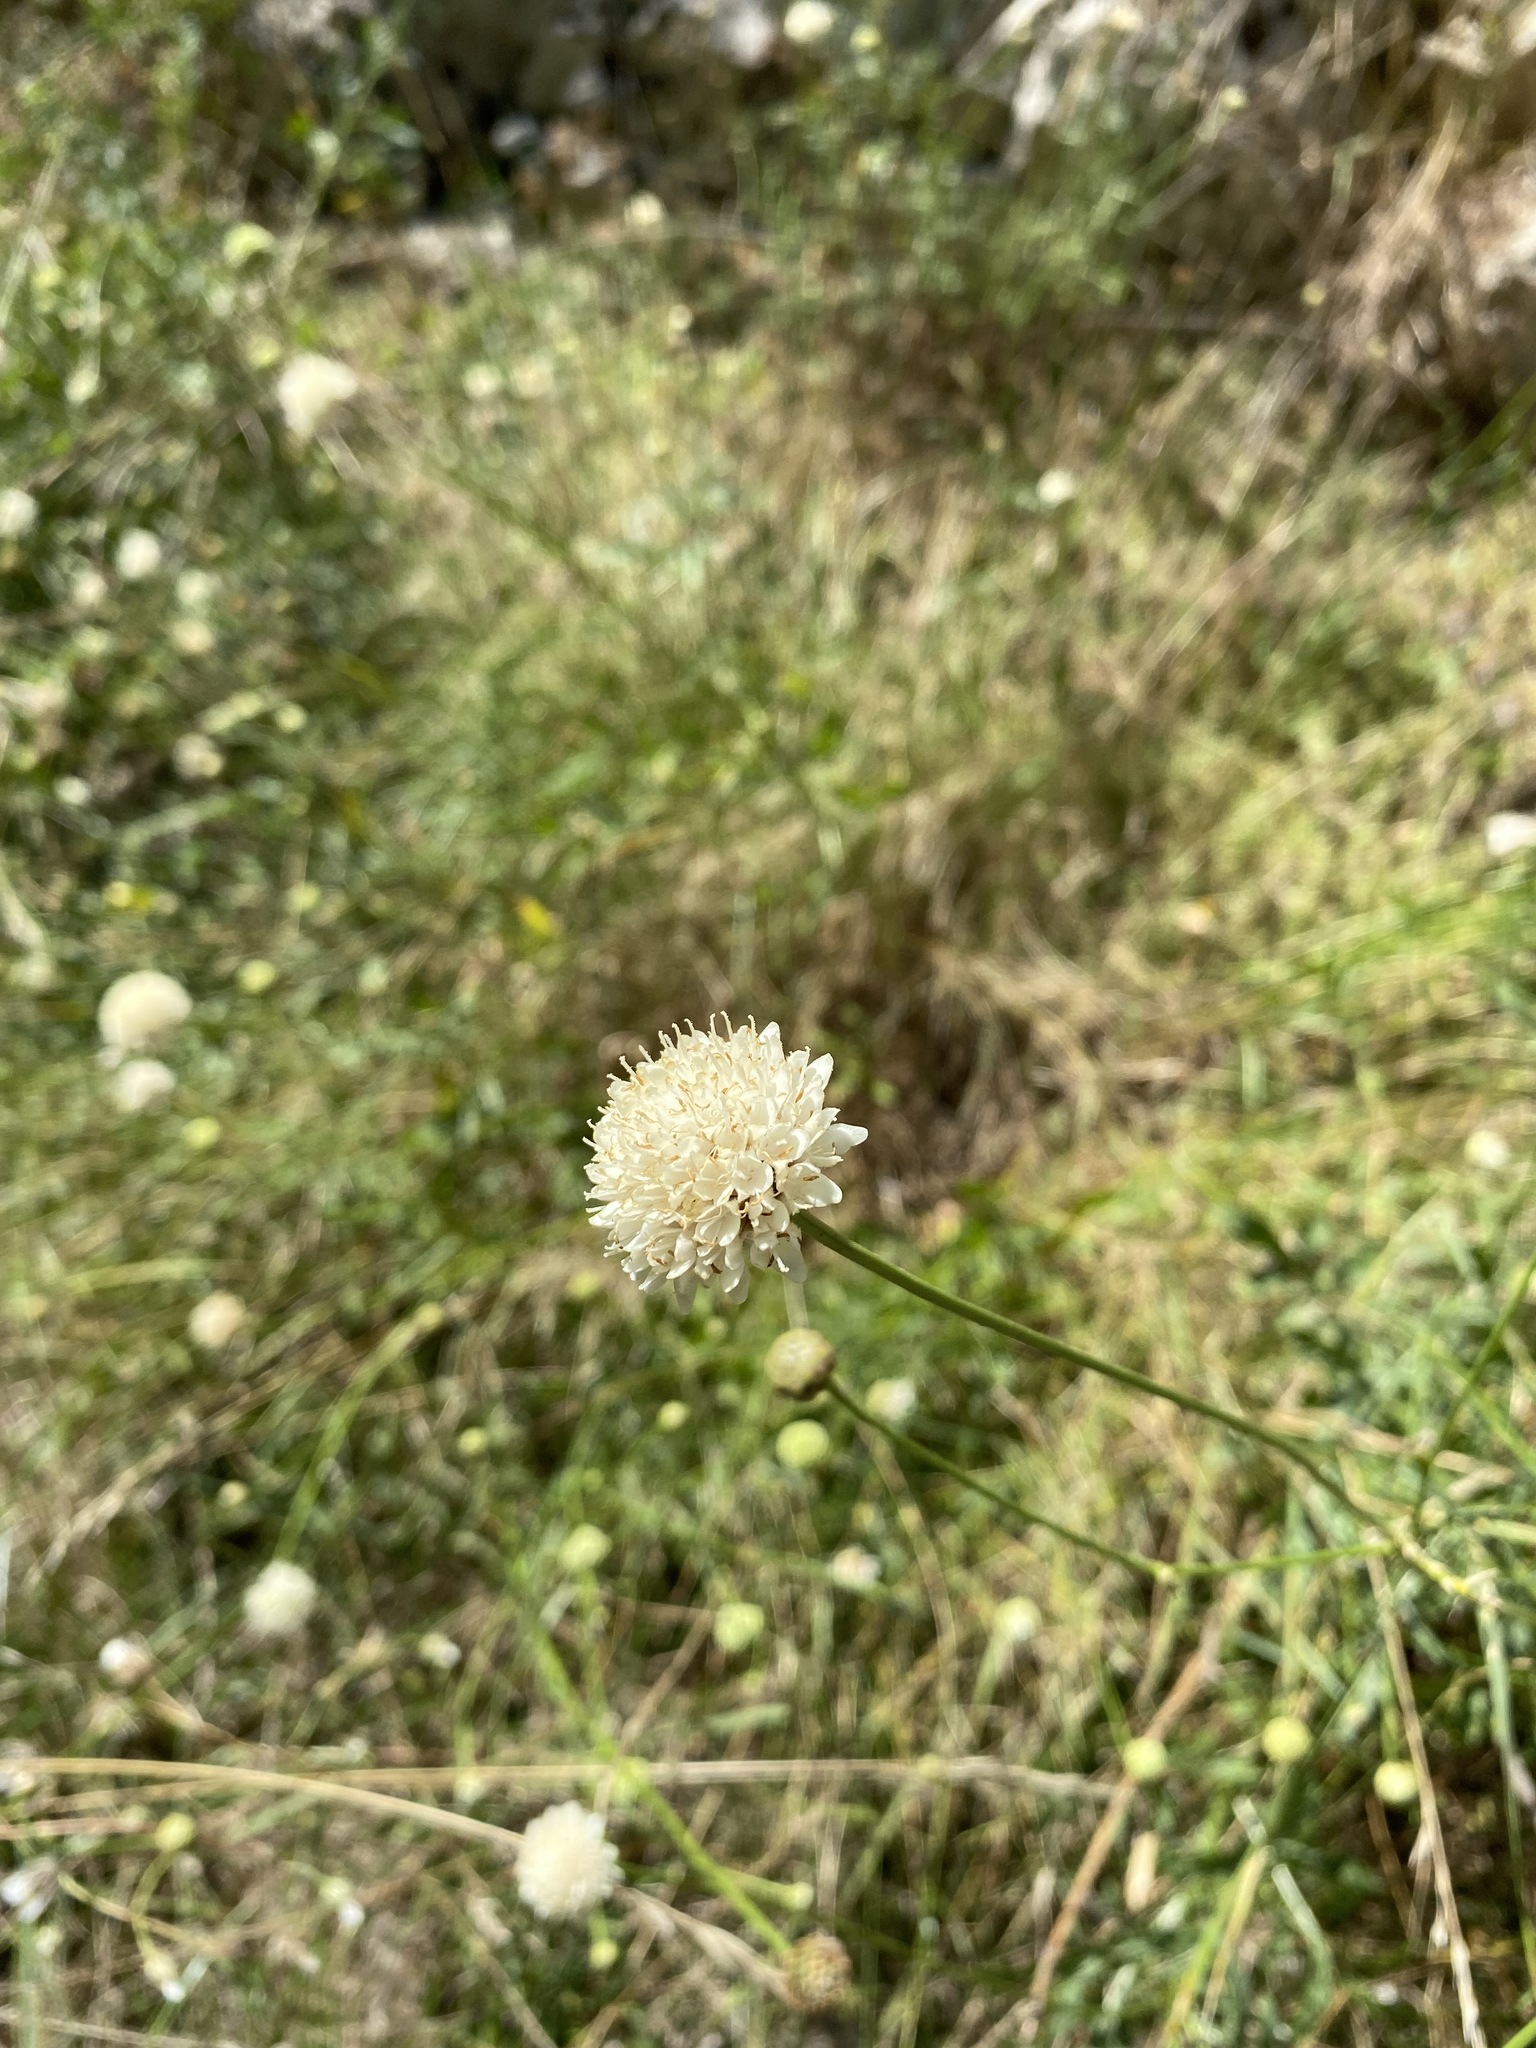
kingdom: Plantae
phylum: Tracheophyta
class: Magnoliopsida
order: Dipsacales
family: Caprifoliaceae
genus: Cephalaria
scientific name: Cephalaria leucantha
